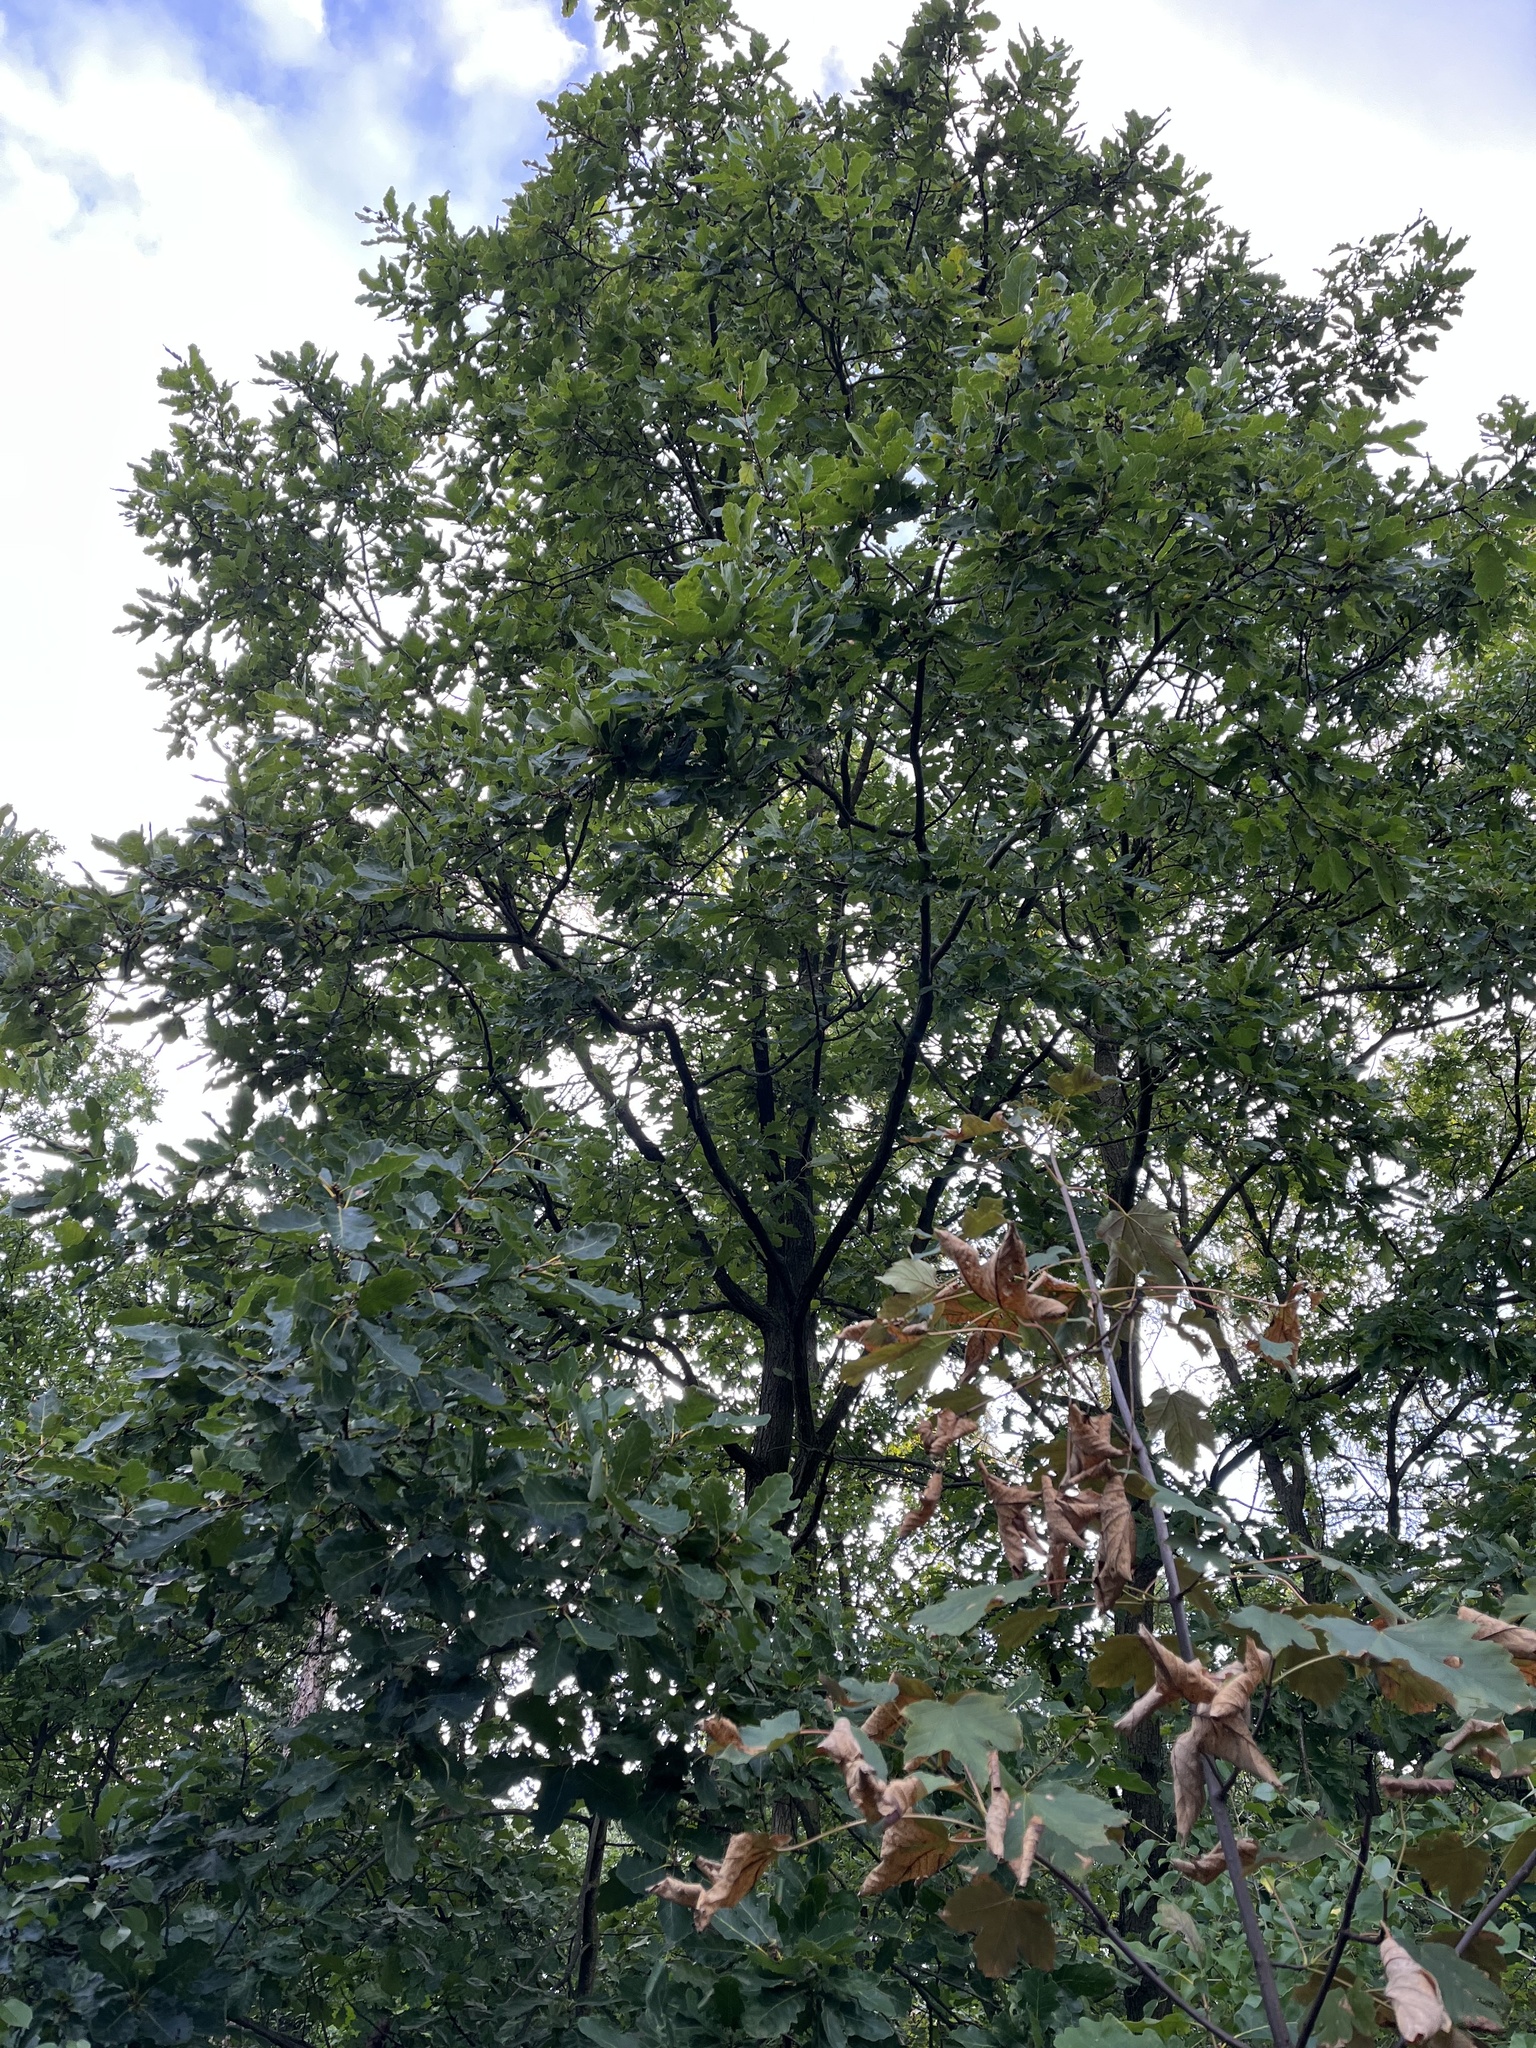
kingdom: Plantae
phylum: Tracheophyta
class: Magnoliopsida
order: Fagales
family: Fagaceae
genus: Quercus
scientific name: Quercus petraea
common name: Sessile oak
